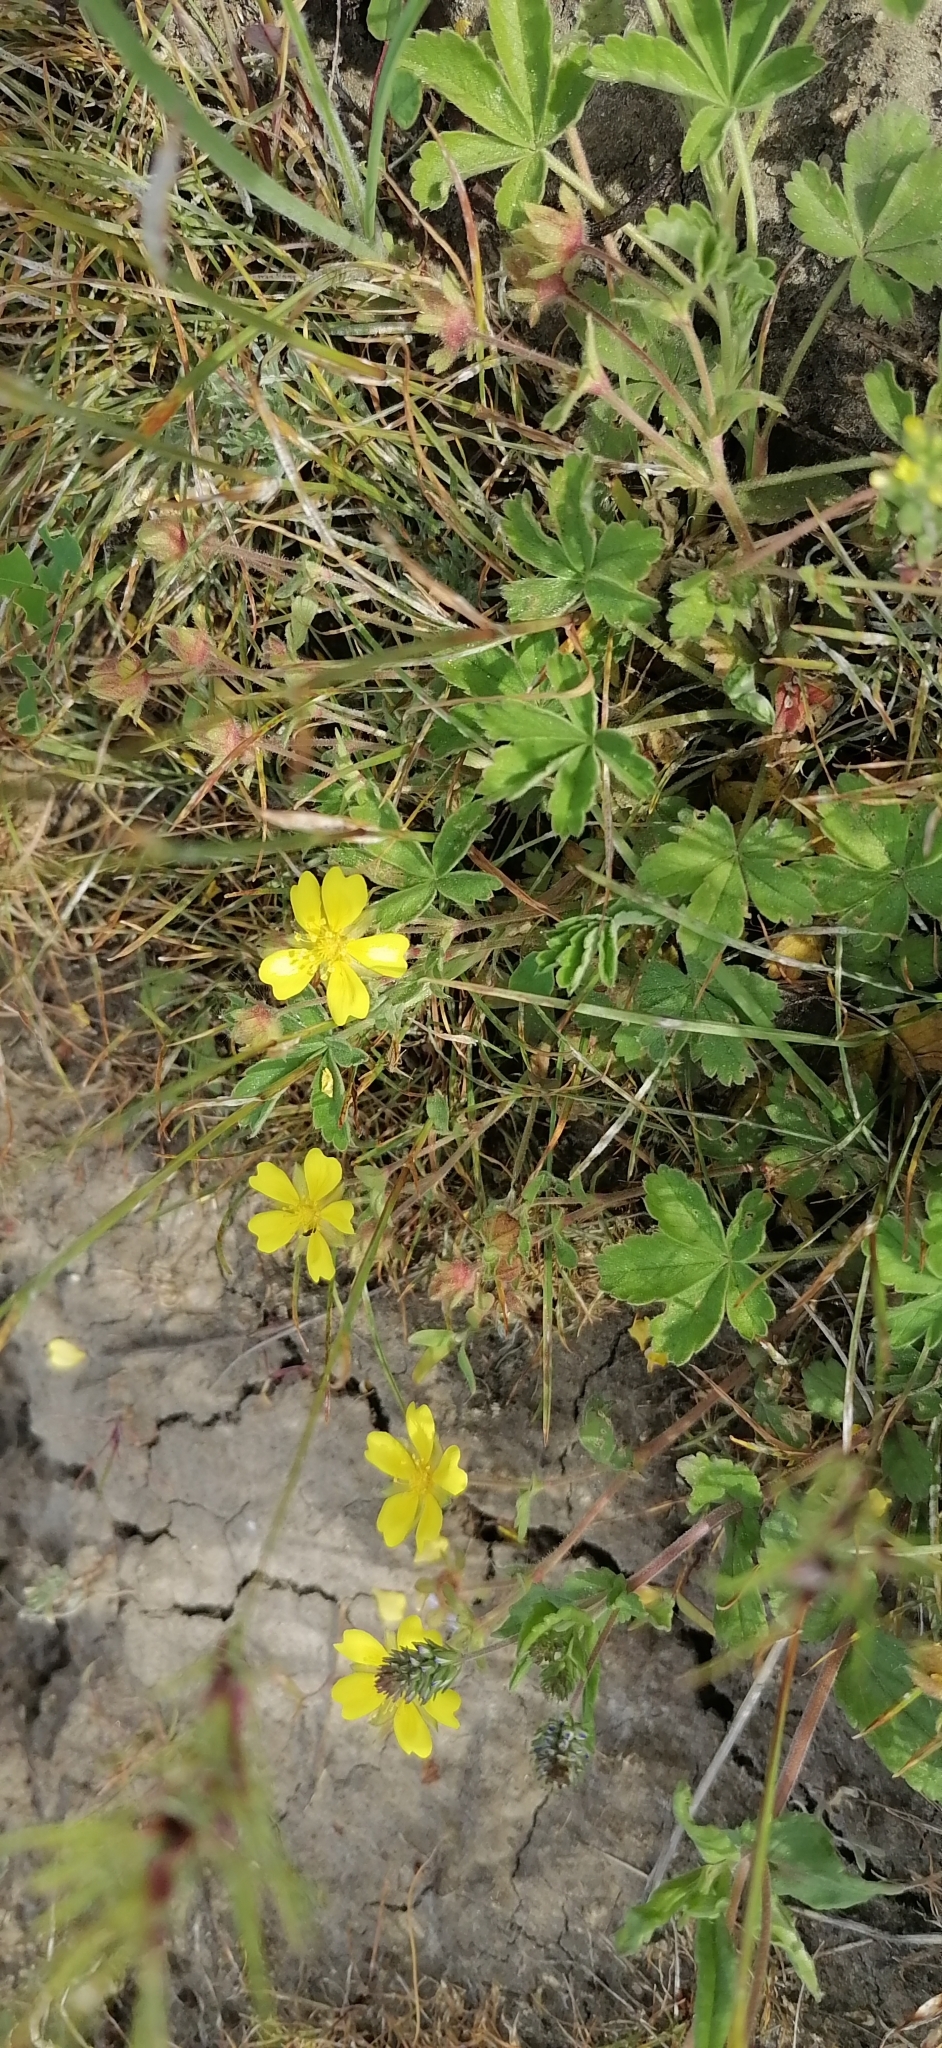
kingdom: Plantae
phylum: Tracheophyta
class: Magnoliopsida
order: Rosales
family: Rosaceae
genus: Potentilla
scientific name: Potentilla incana
